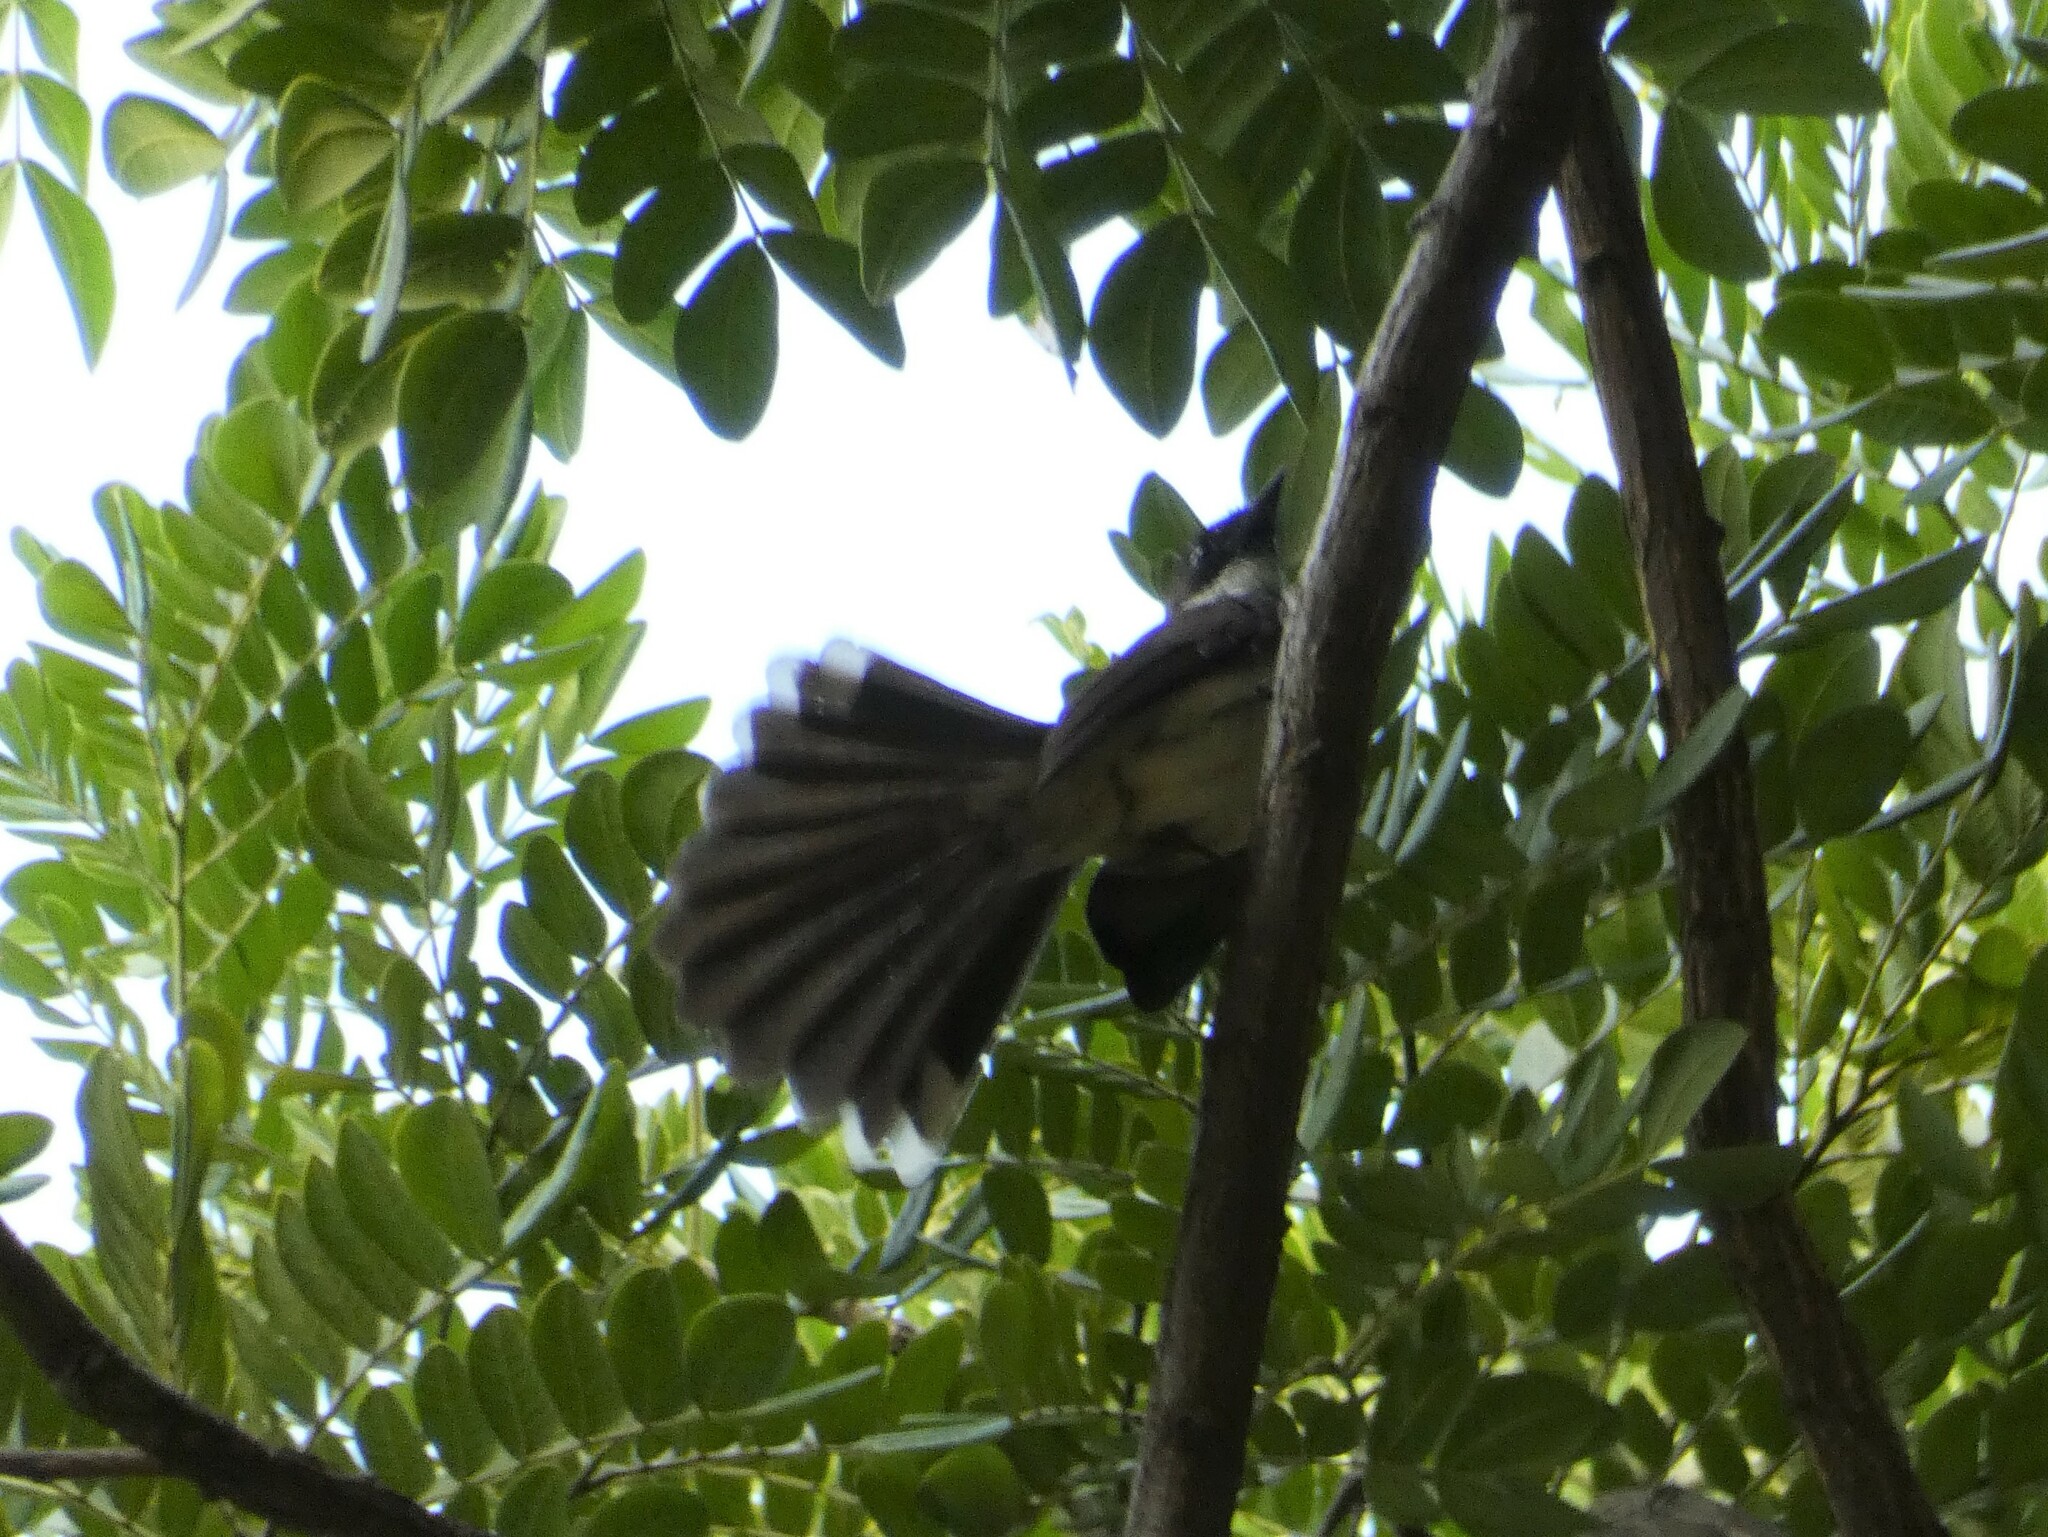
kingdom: Animalia
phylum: Chordata
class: Aves
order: Passeriformes
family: Rhipiduridae
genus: Rhipidura
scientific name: Rhipidura javanica
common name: Pied fantail
